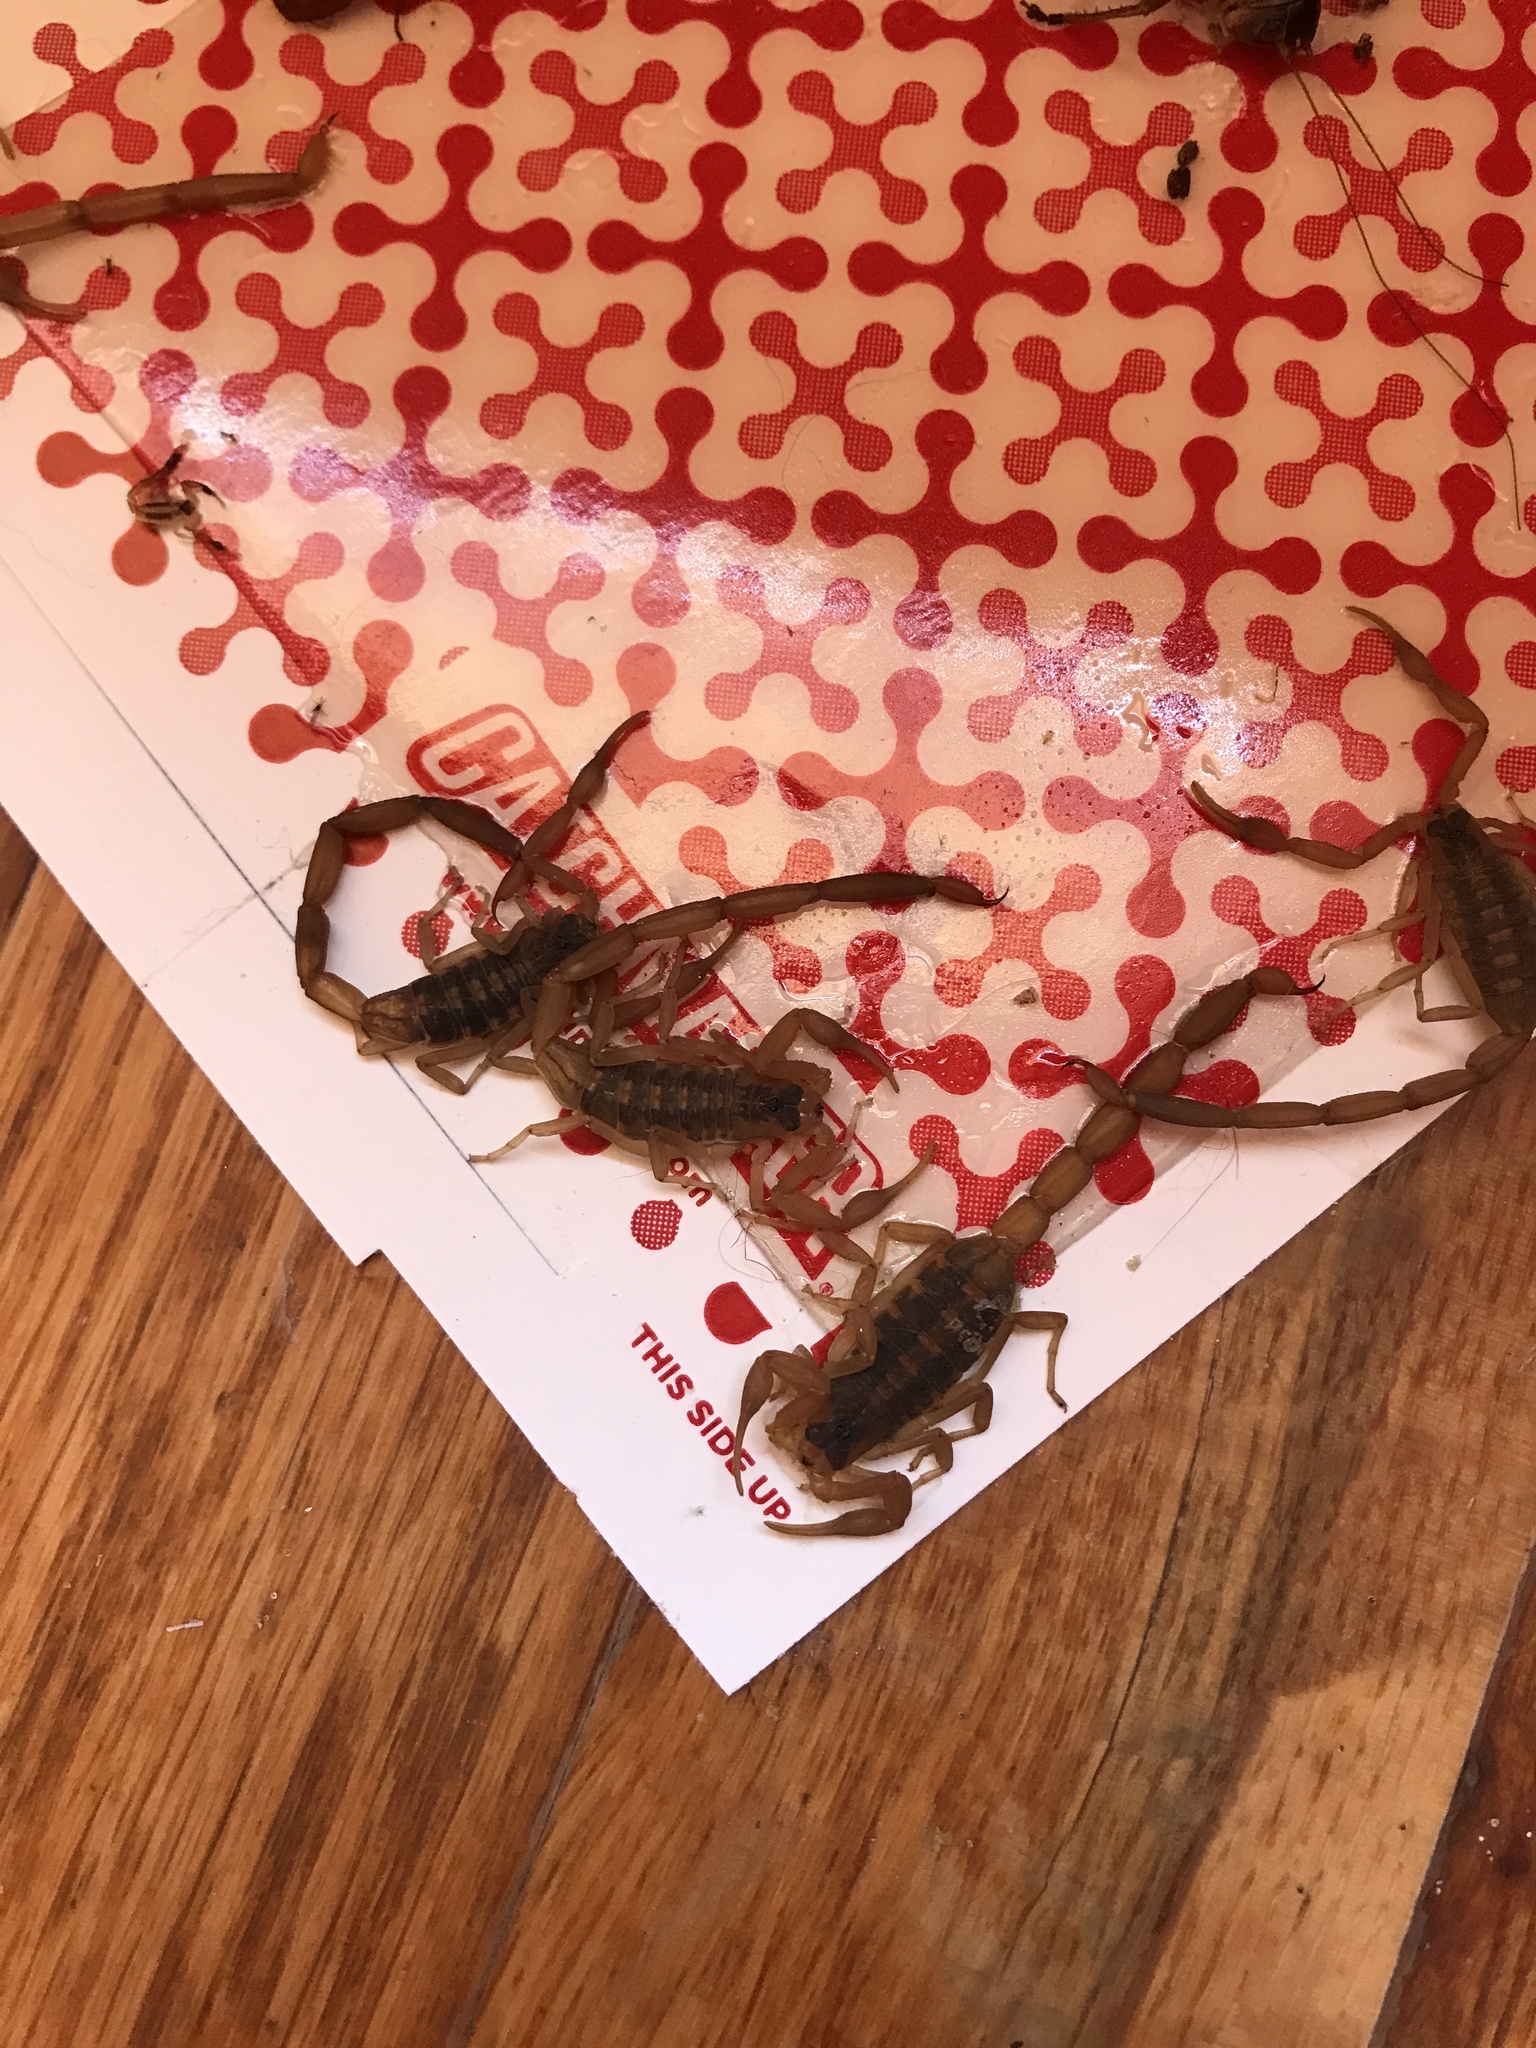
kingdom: Animalia
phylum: Arthropoda
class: Arachnida
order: Scorpiones
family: Buthidae
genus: Centruroides
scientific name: Centruroides vittatus
